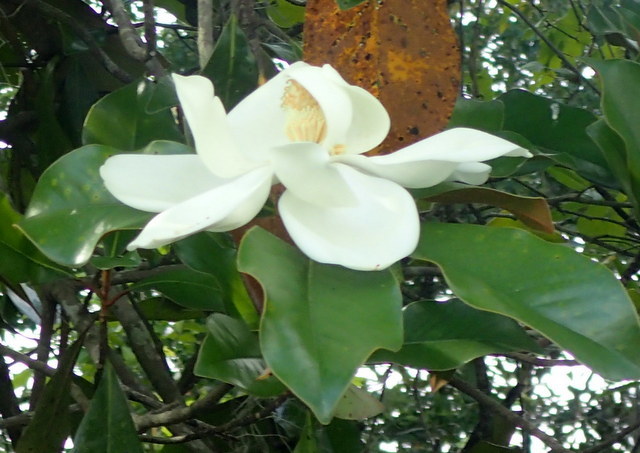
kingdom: Plantae
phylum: Tracheophyta
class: Magnoliopsida
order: Magnoliales
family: Magnoliaceae
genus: Magnolia
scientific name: Magnolia grandiflora
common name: Southern magnolia
